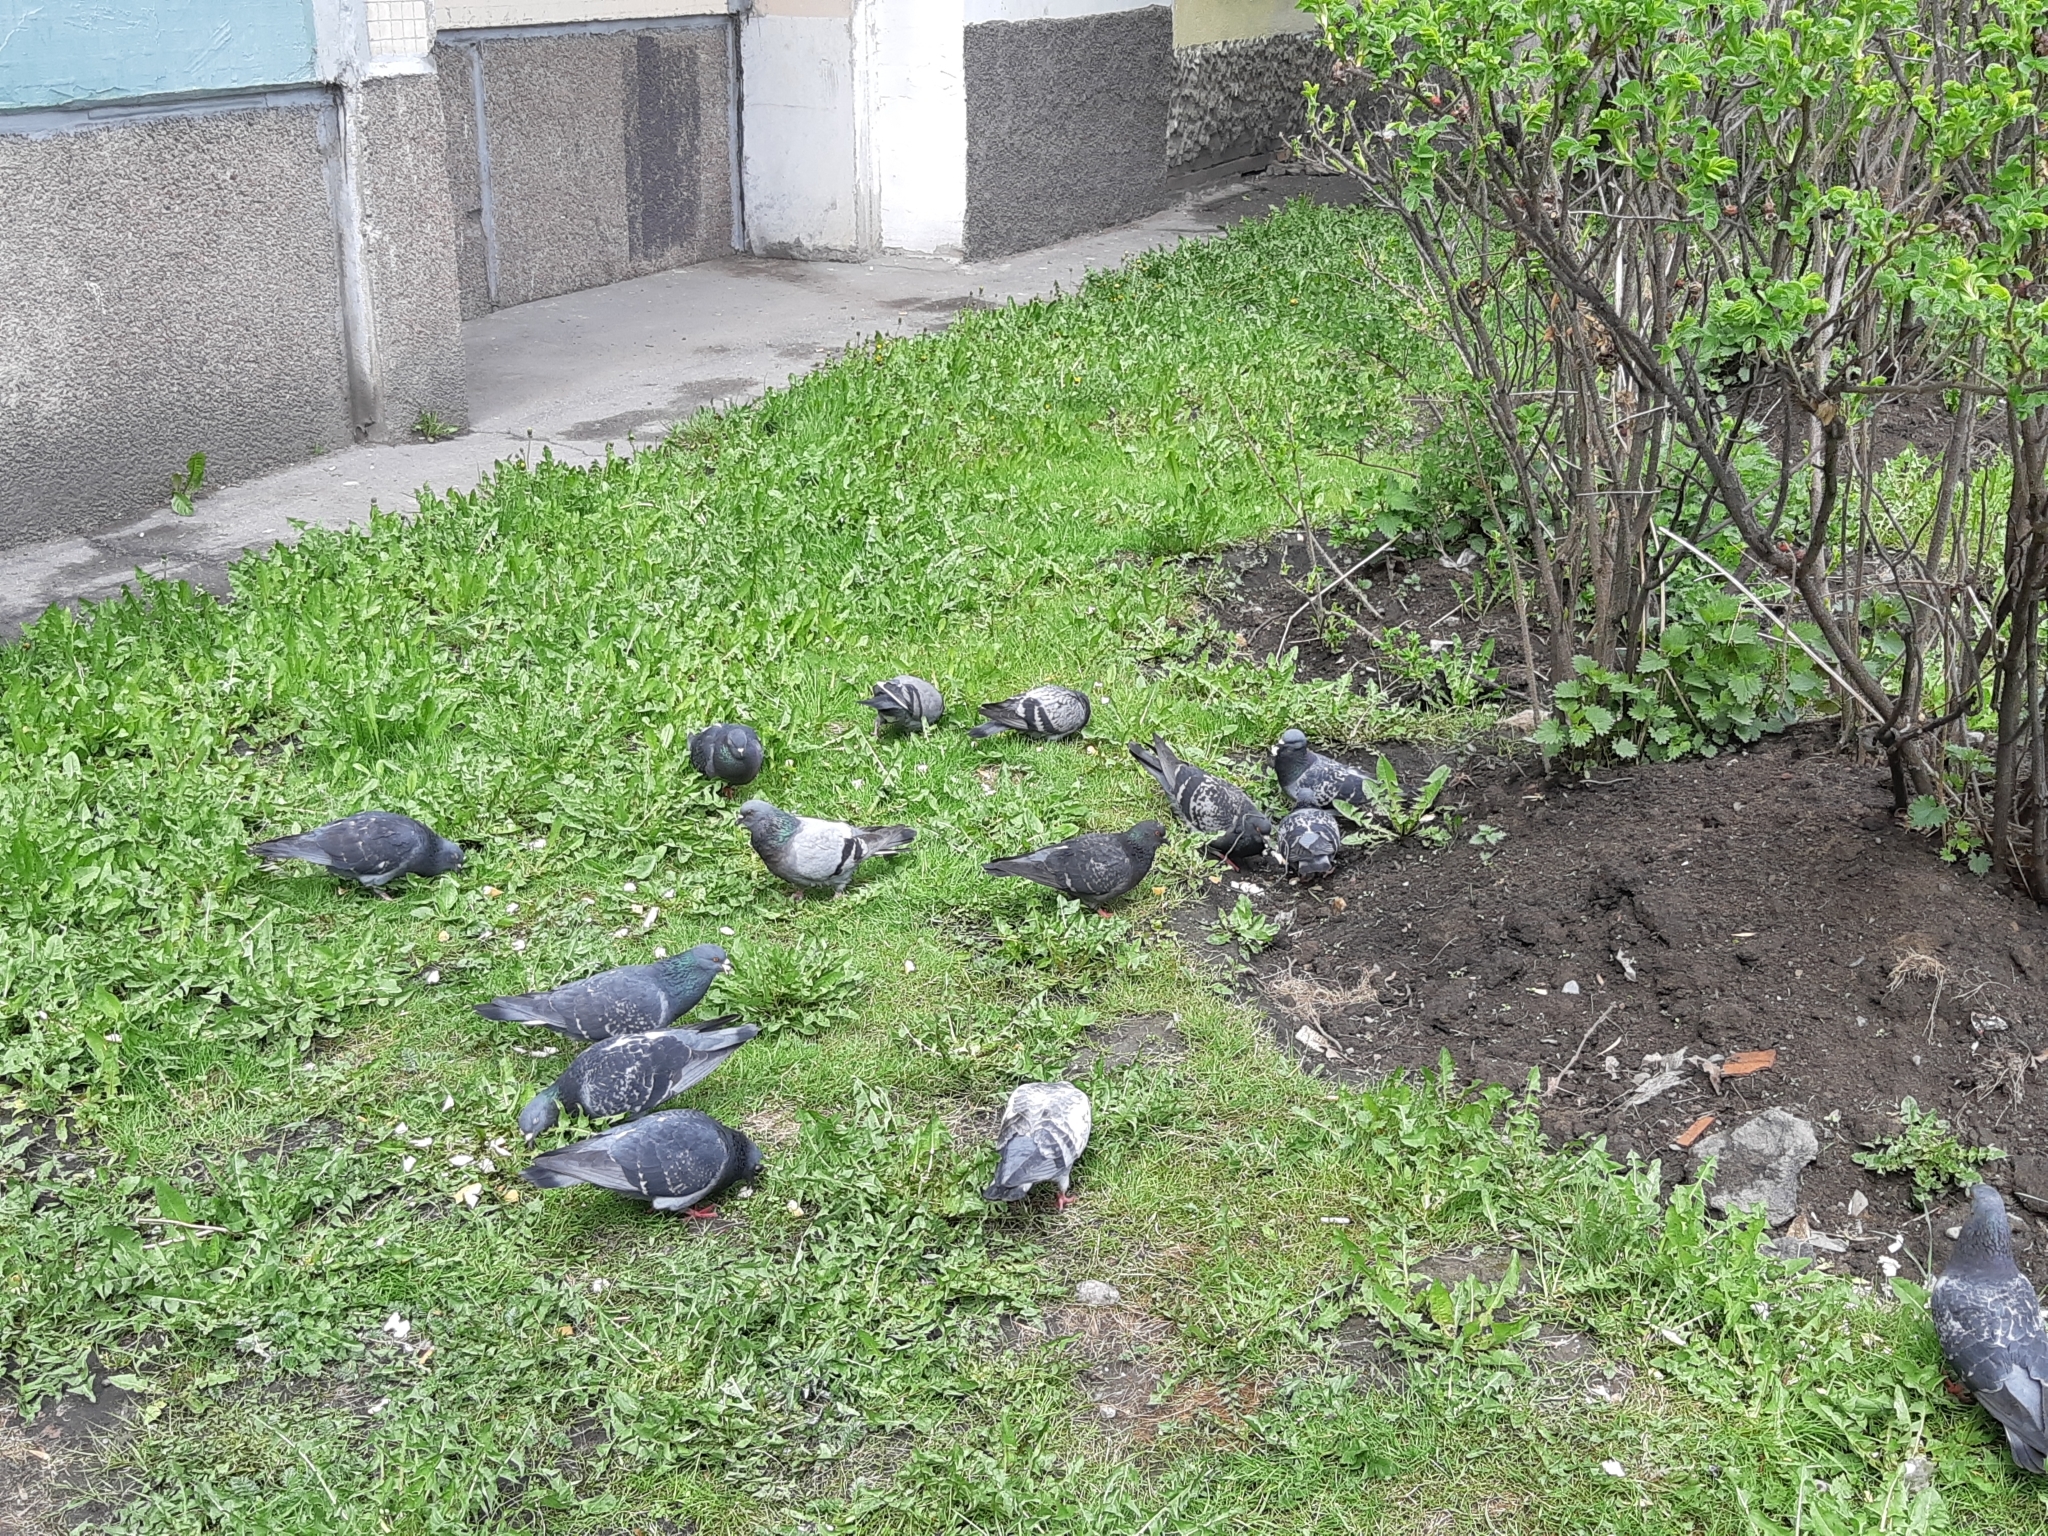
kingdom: Animalia
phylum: Chordata
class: Aves
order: Columbiformes
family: Columbidae
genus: Columba
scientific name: Columba livia
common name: Rock pigeon
